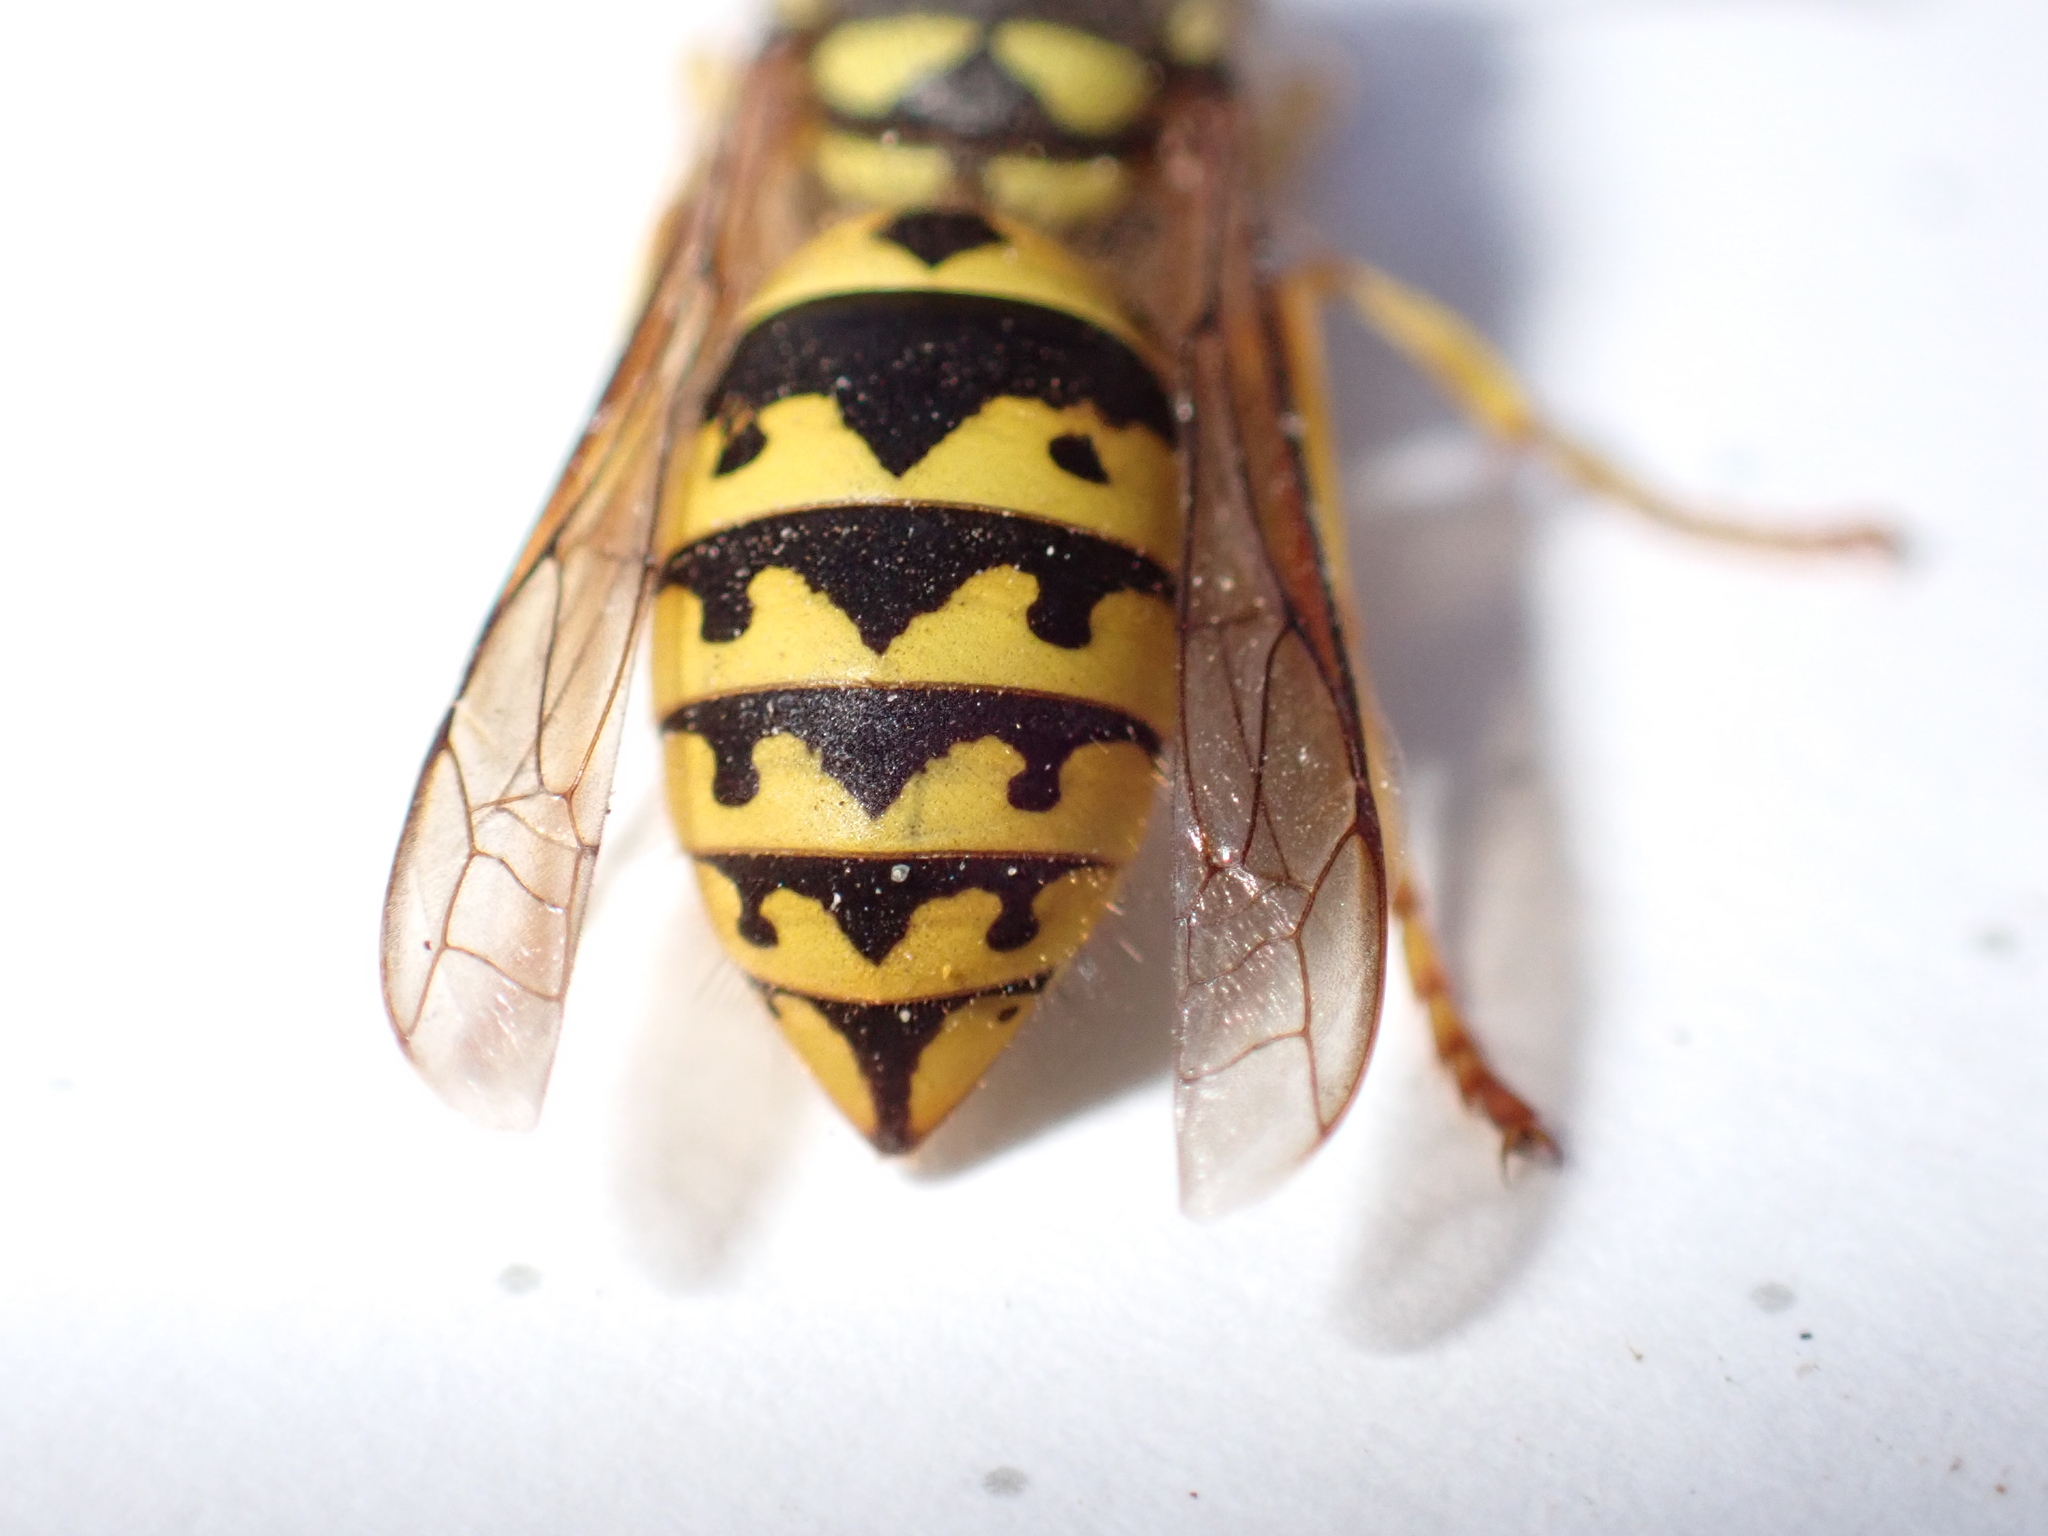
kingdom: Animalia
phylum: Arthropoda
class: Insecta
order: Hymenoptera
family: Vespidae
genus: Vespula
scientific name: Vespula pensylvanica
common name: Western yellowjacket
